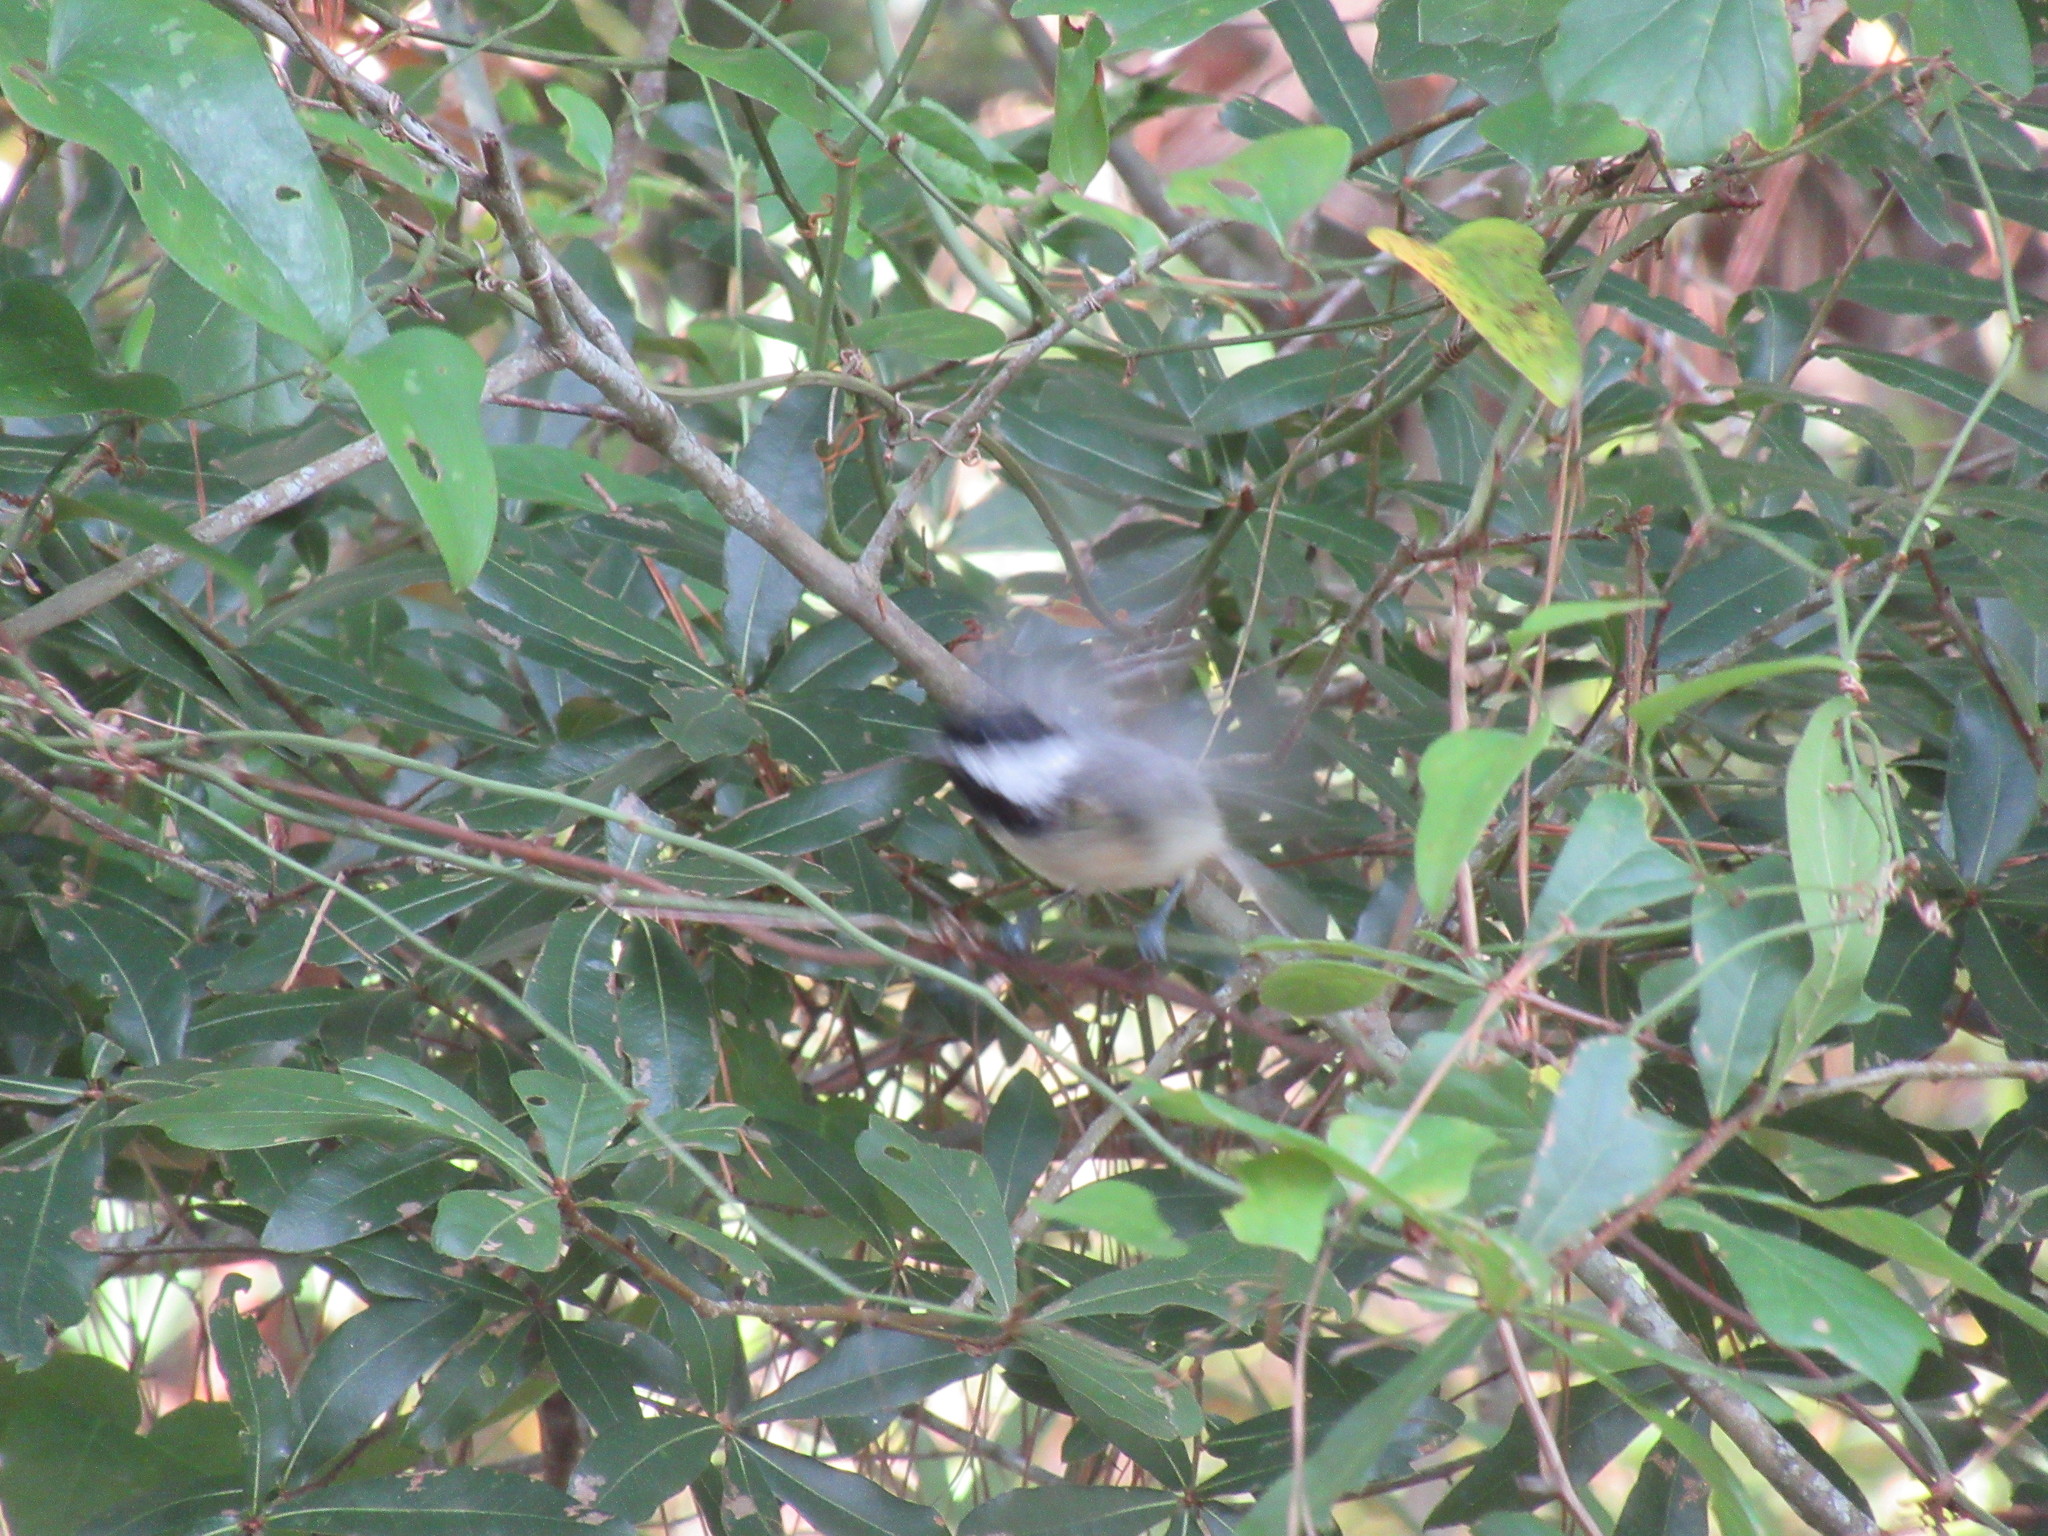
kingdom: Animalia
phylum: Chordata
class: Aves
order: Passeriformes
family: Paridae
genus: Poecile
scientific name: Poecile carolinensis
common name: Carolina chickadee
